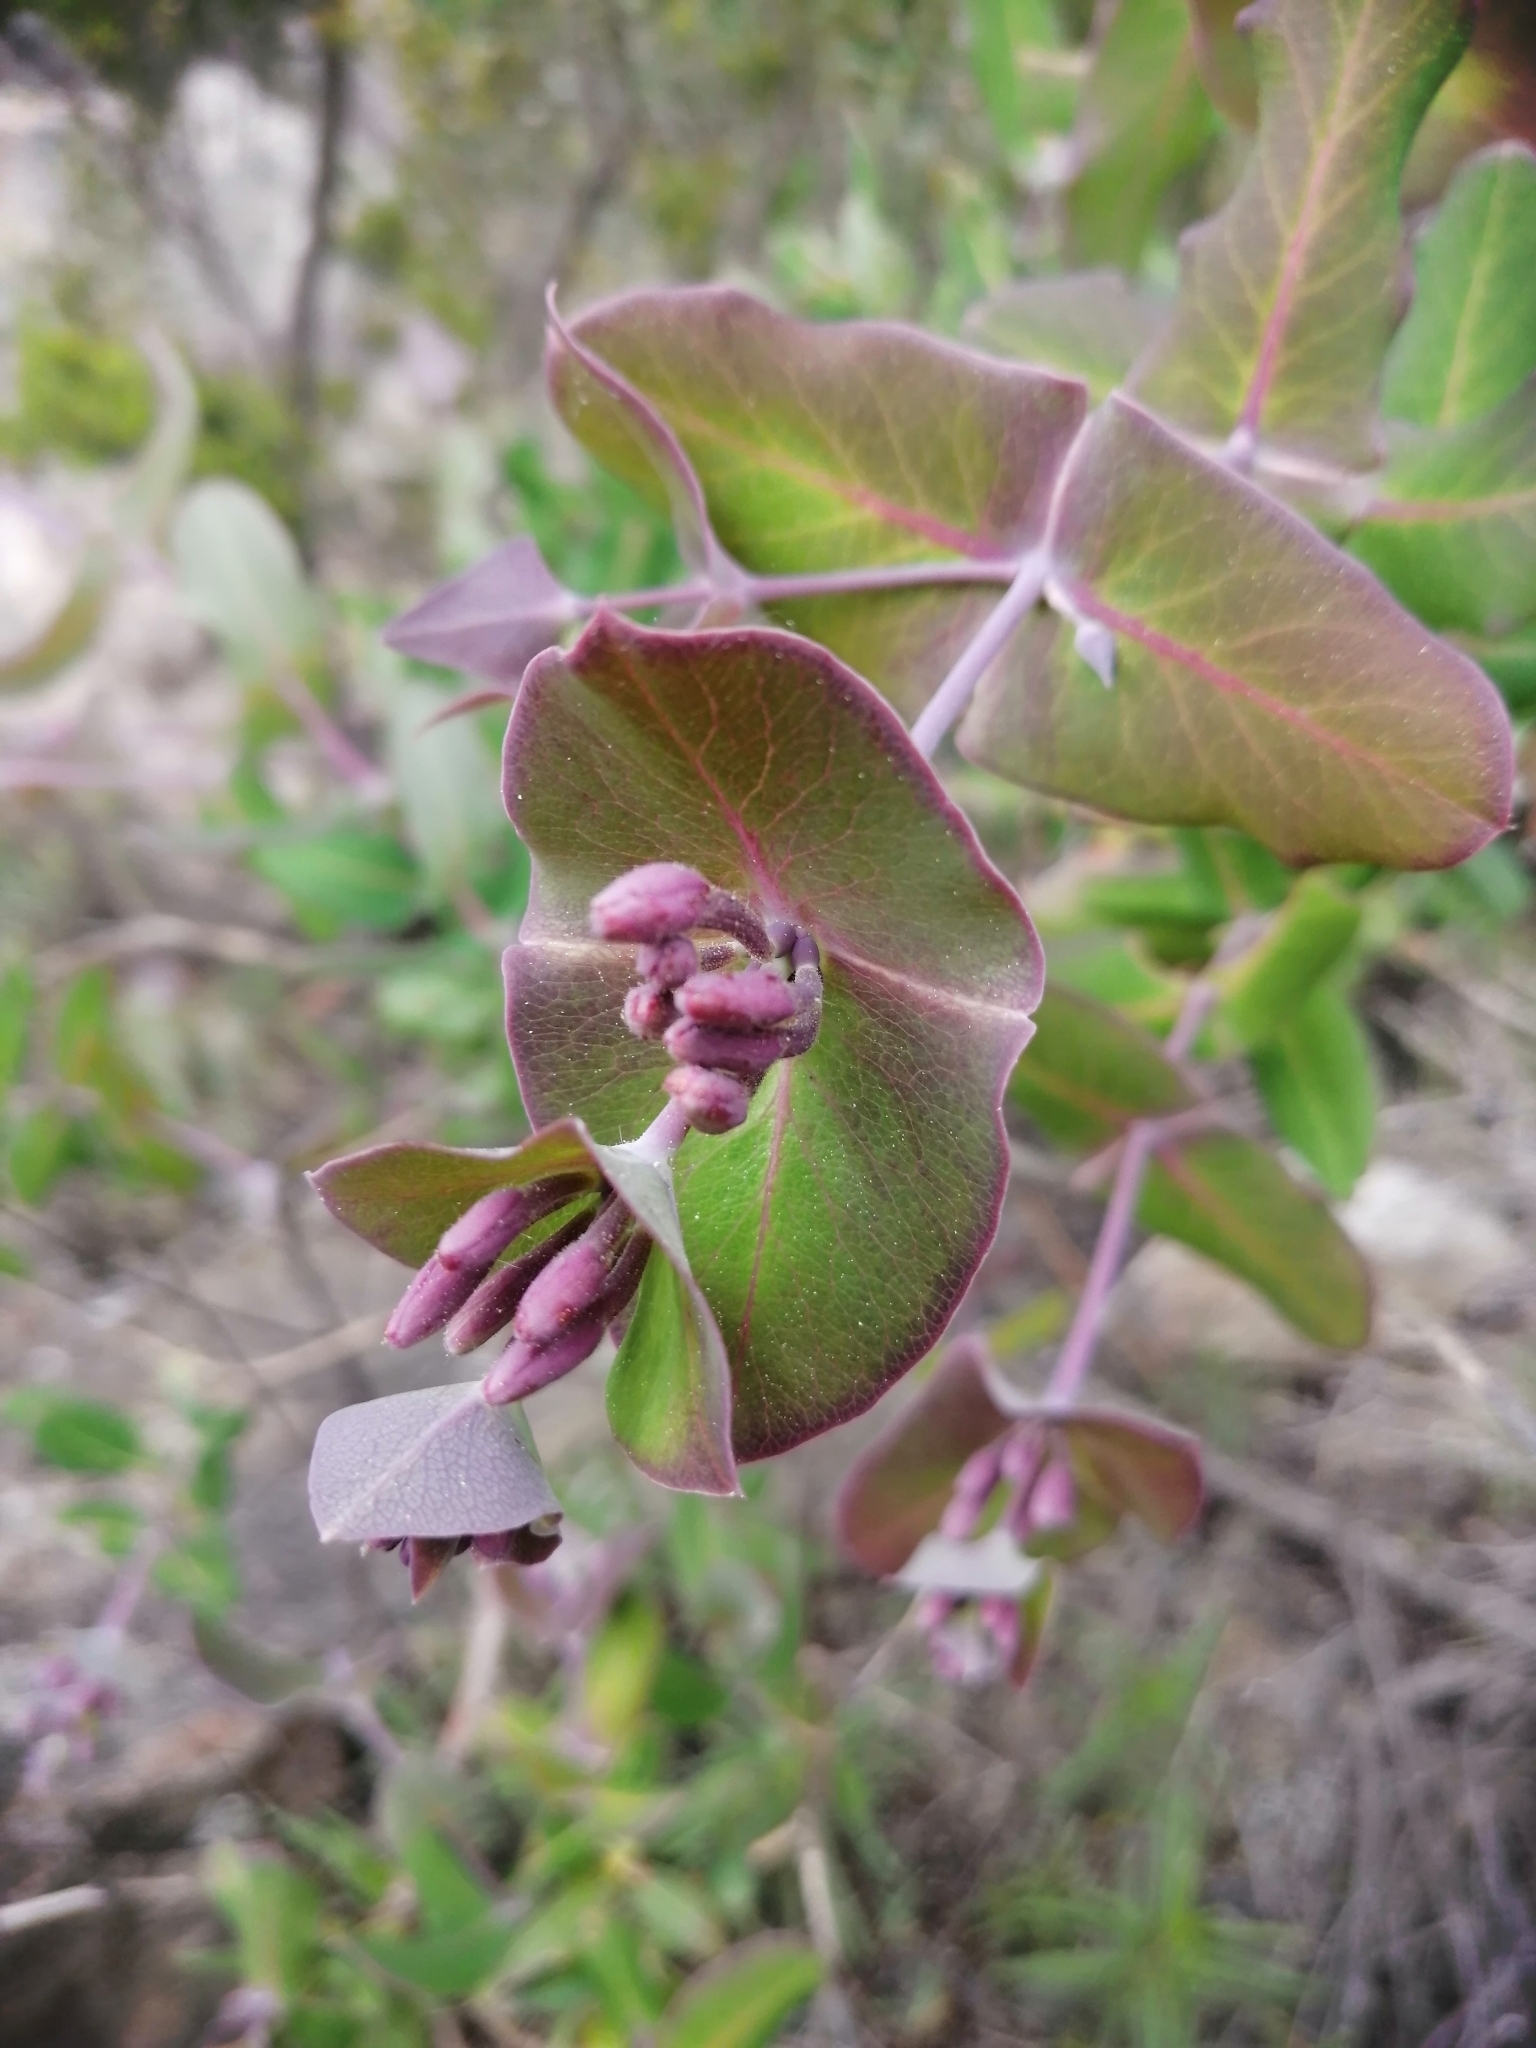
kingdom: Plantae
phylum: Tracheophyta
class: Magnoliopsida
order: Dipsacales
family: Caprifoliaceae
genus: Lonicera
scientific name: Lonicera implexa
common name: Minorca honeysuckle
